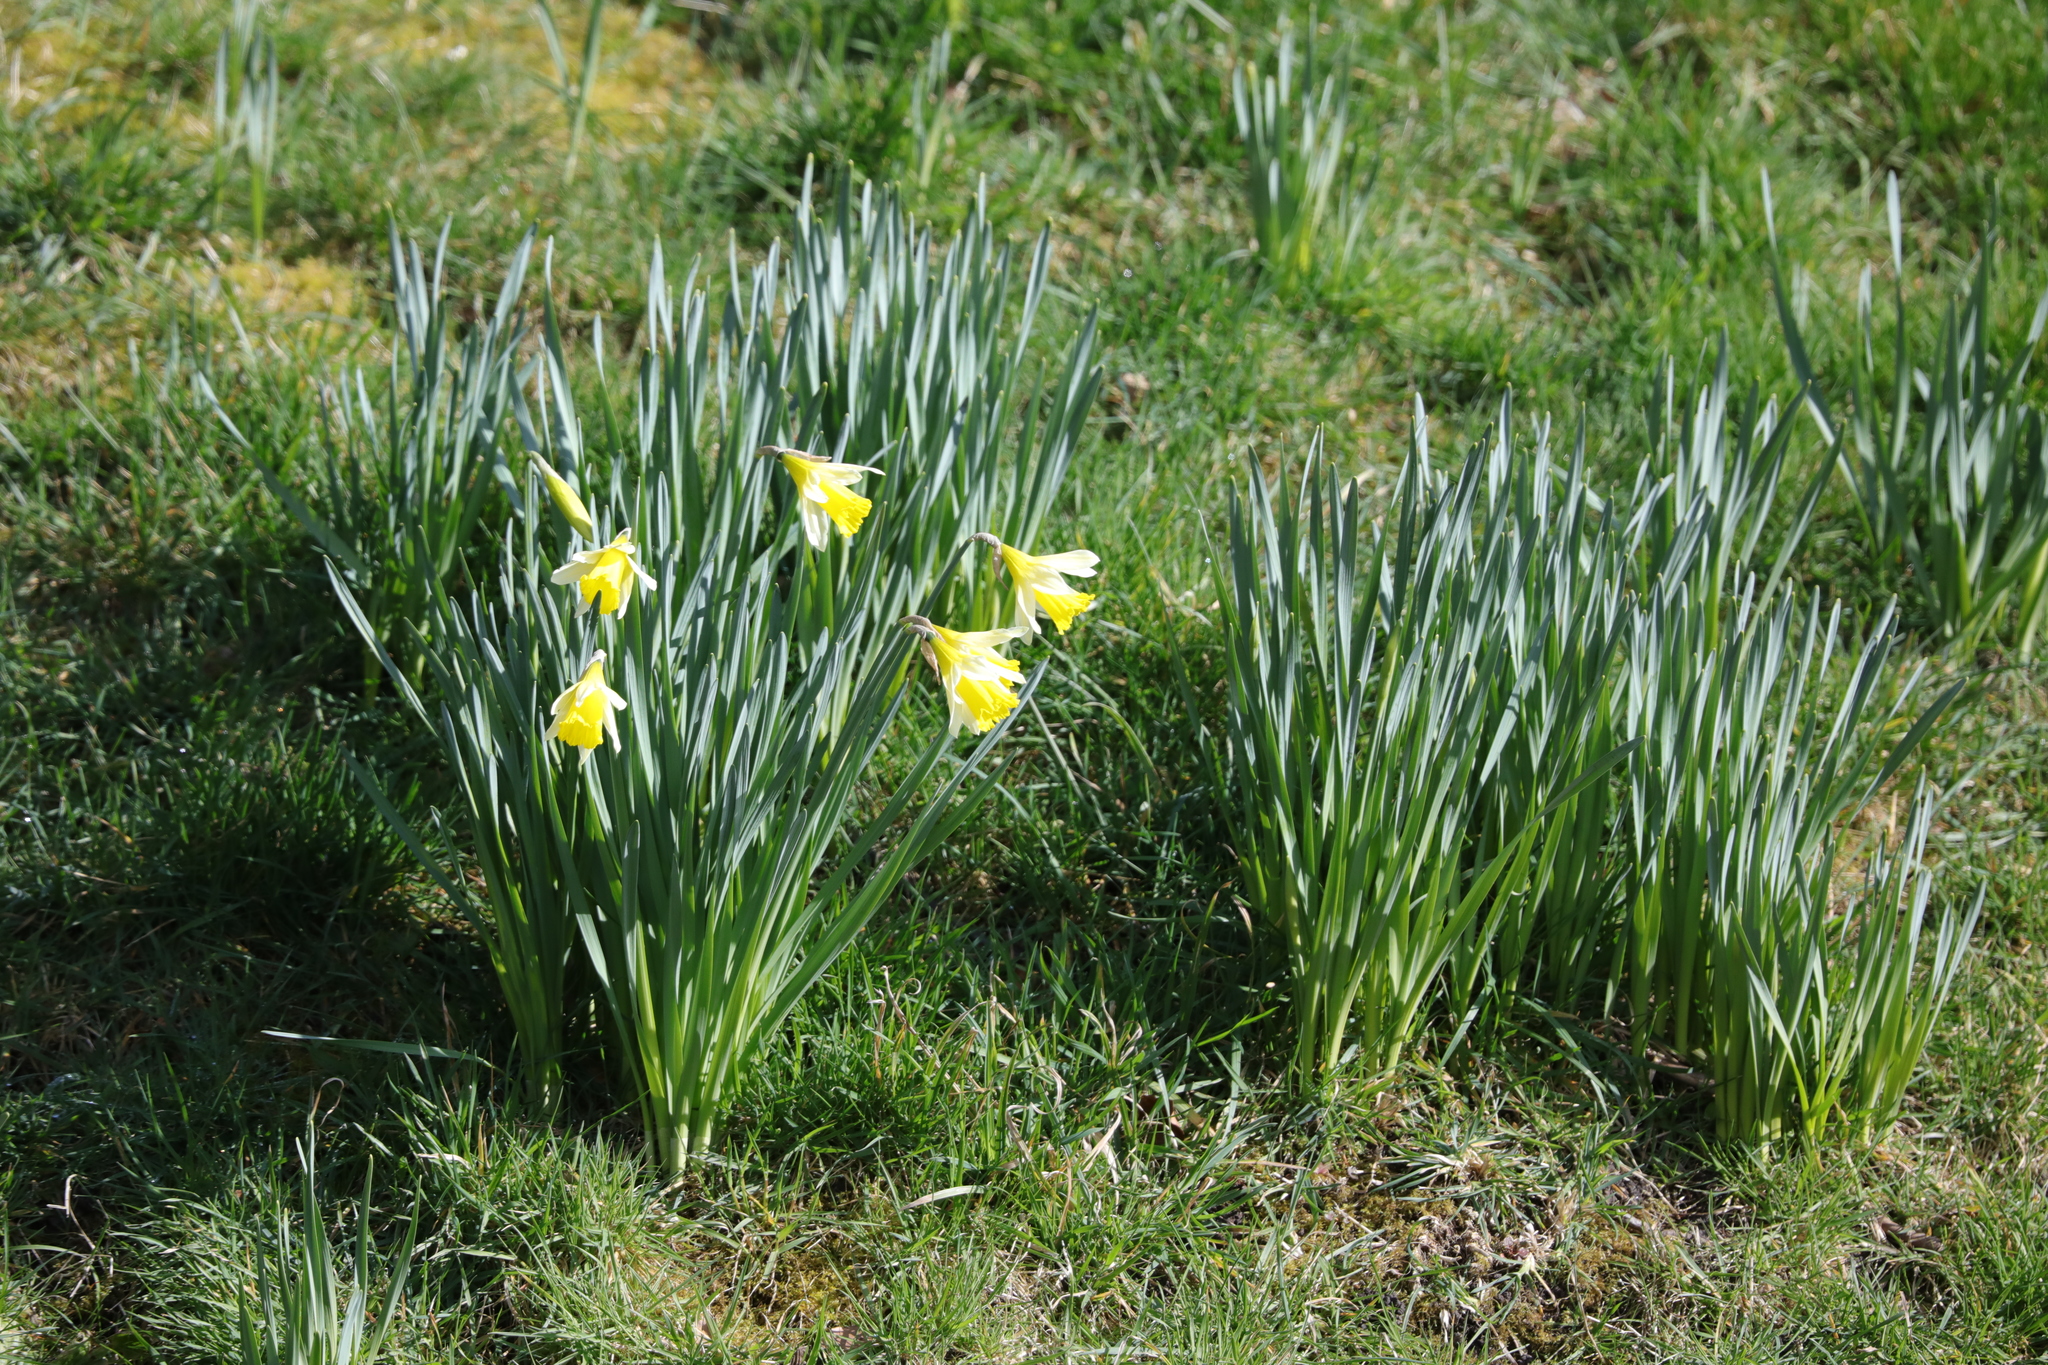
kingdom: Plantae
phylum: Tracheophyta
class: Liliopsida
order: Asparagales
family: Amaryllidaceae
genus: Narcissus
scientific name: Narcissus
